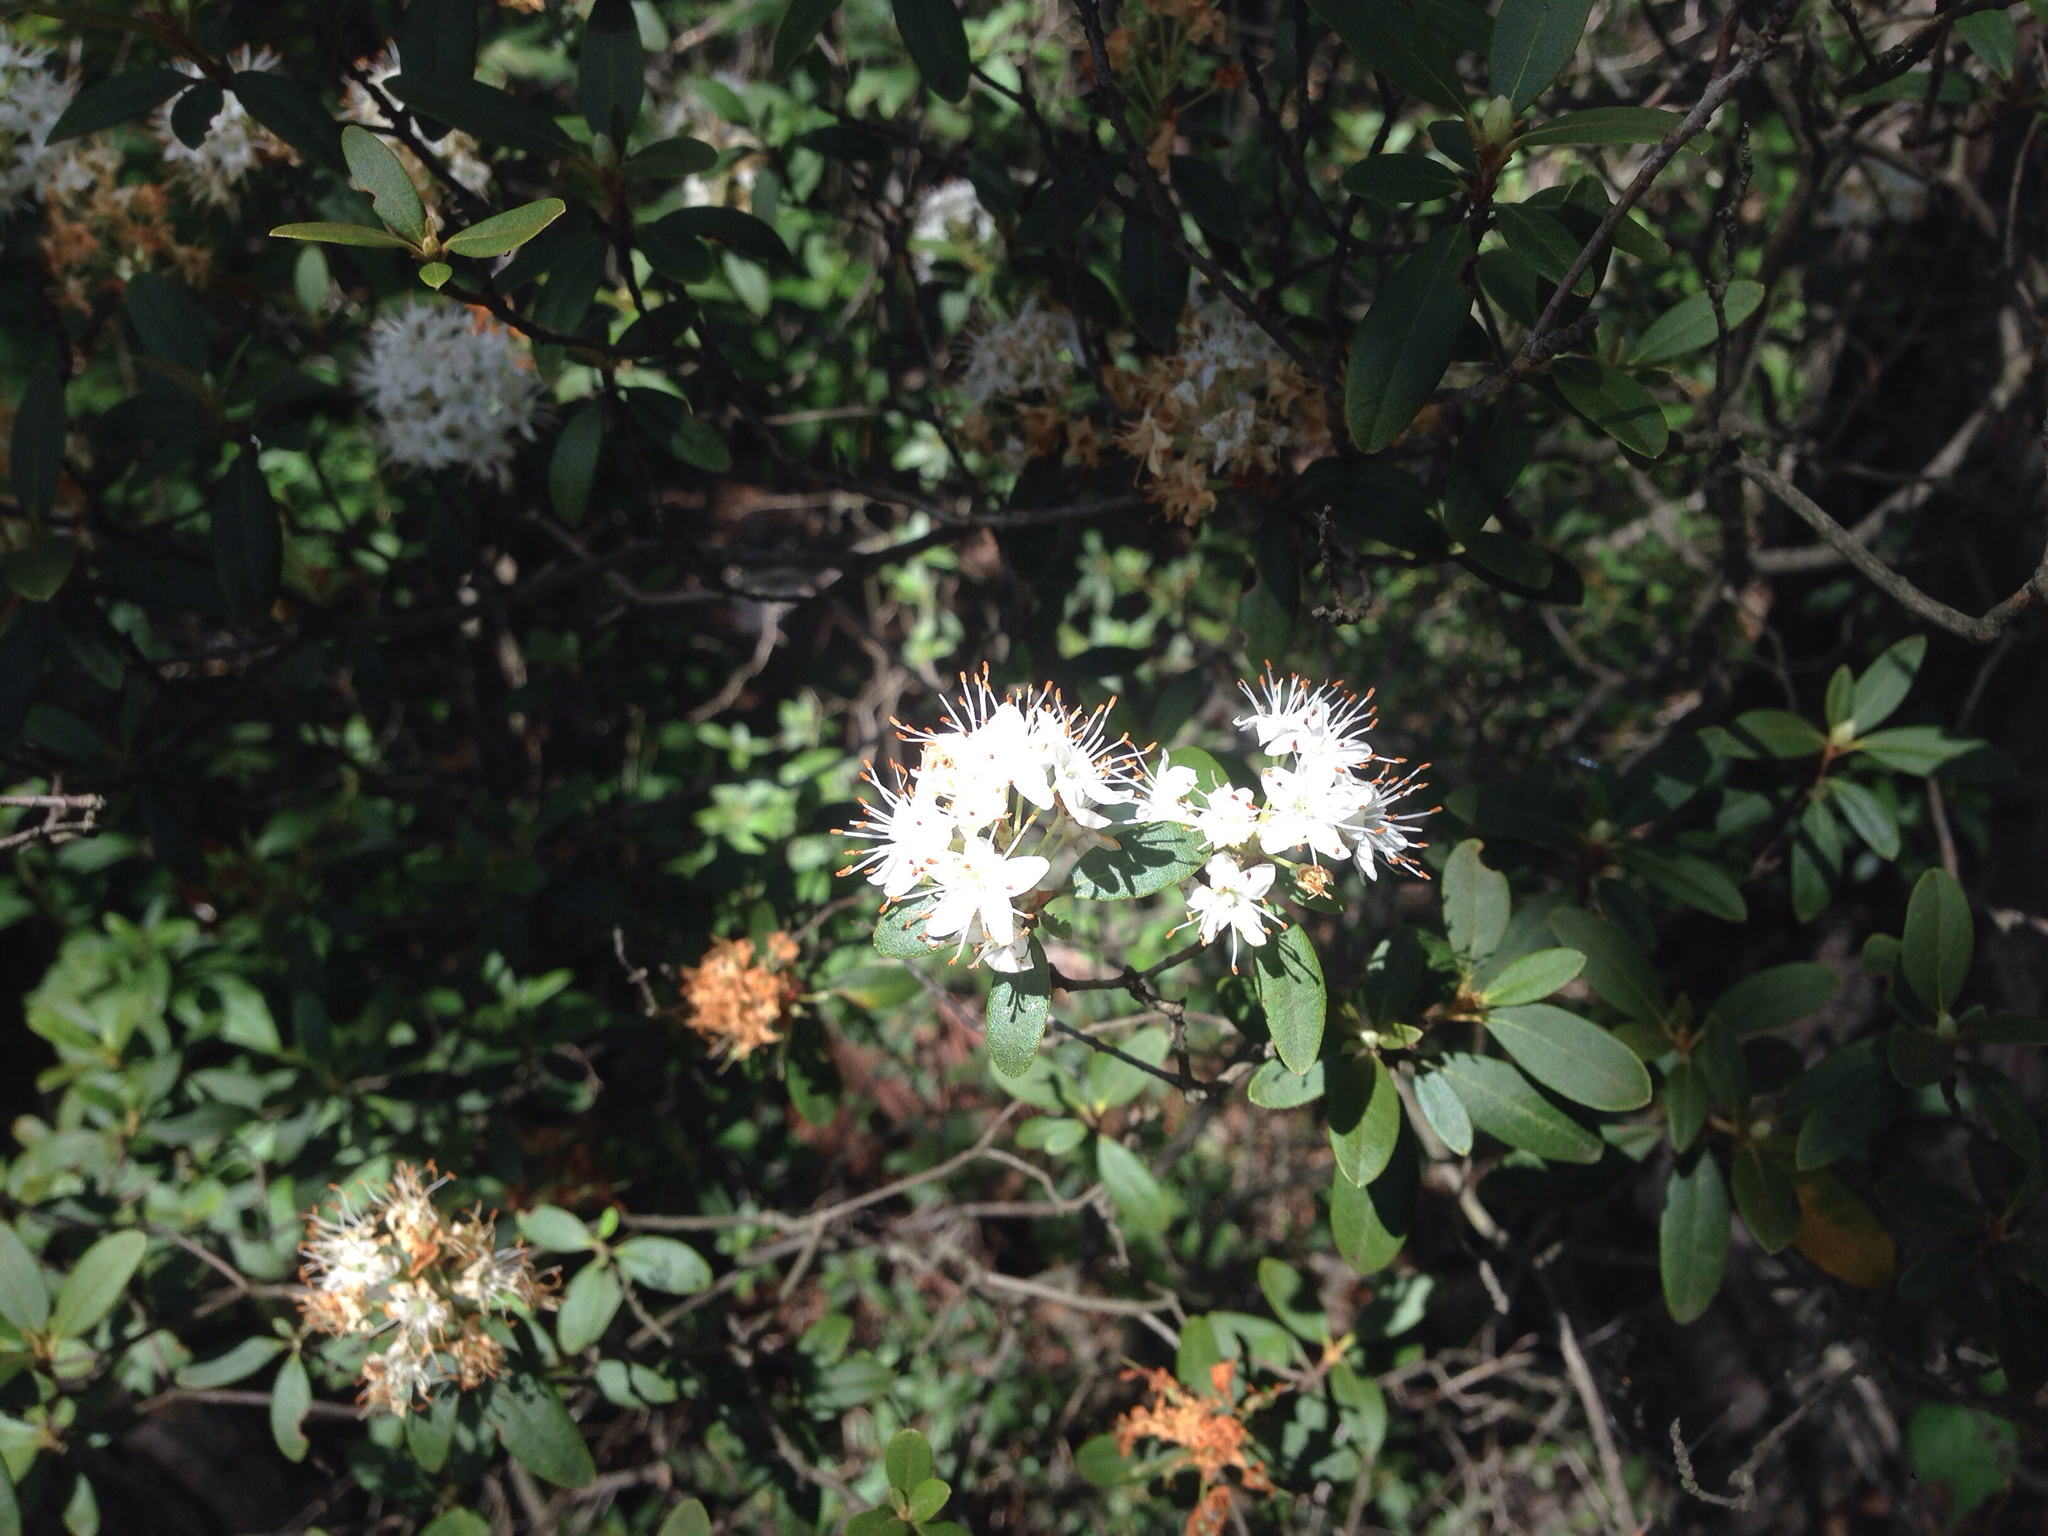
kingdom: Plantae
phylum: Tracheophyta
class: Magnoliopsida
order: Ericales
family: Ericaceae
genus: Rhododendron
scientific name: Rhododendron micranthum
